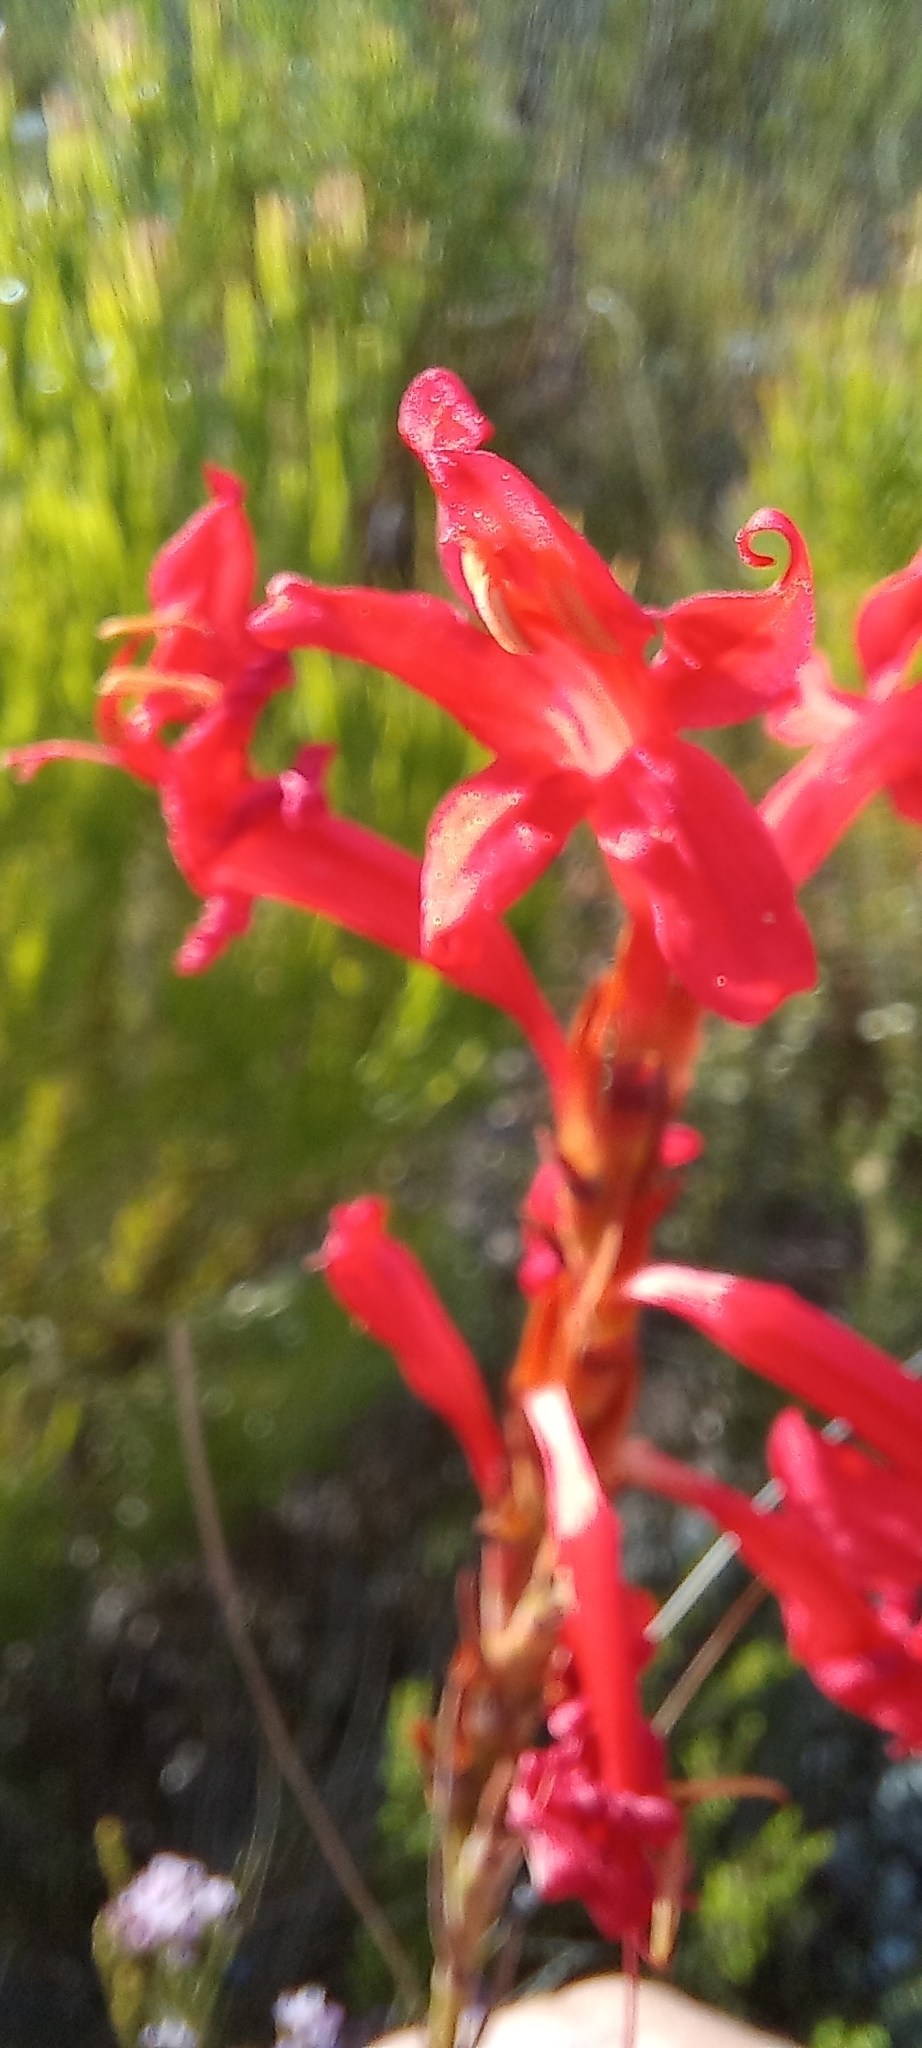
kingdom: Plantae
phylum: Tracheophyta
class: Liliopsida
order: Asparagales
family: Iridaceae
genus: Tritoniopsis
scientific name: Tritoniopsis triticea
